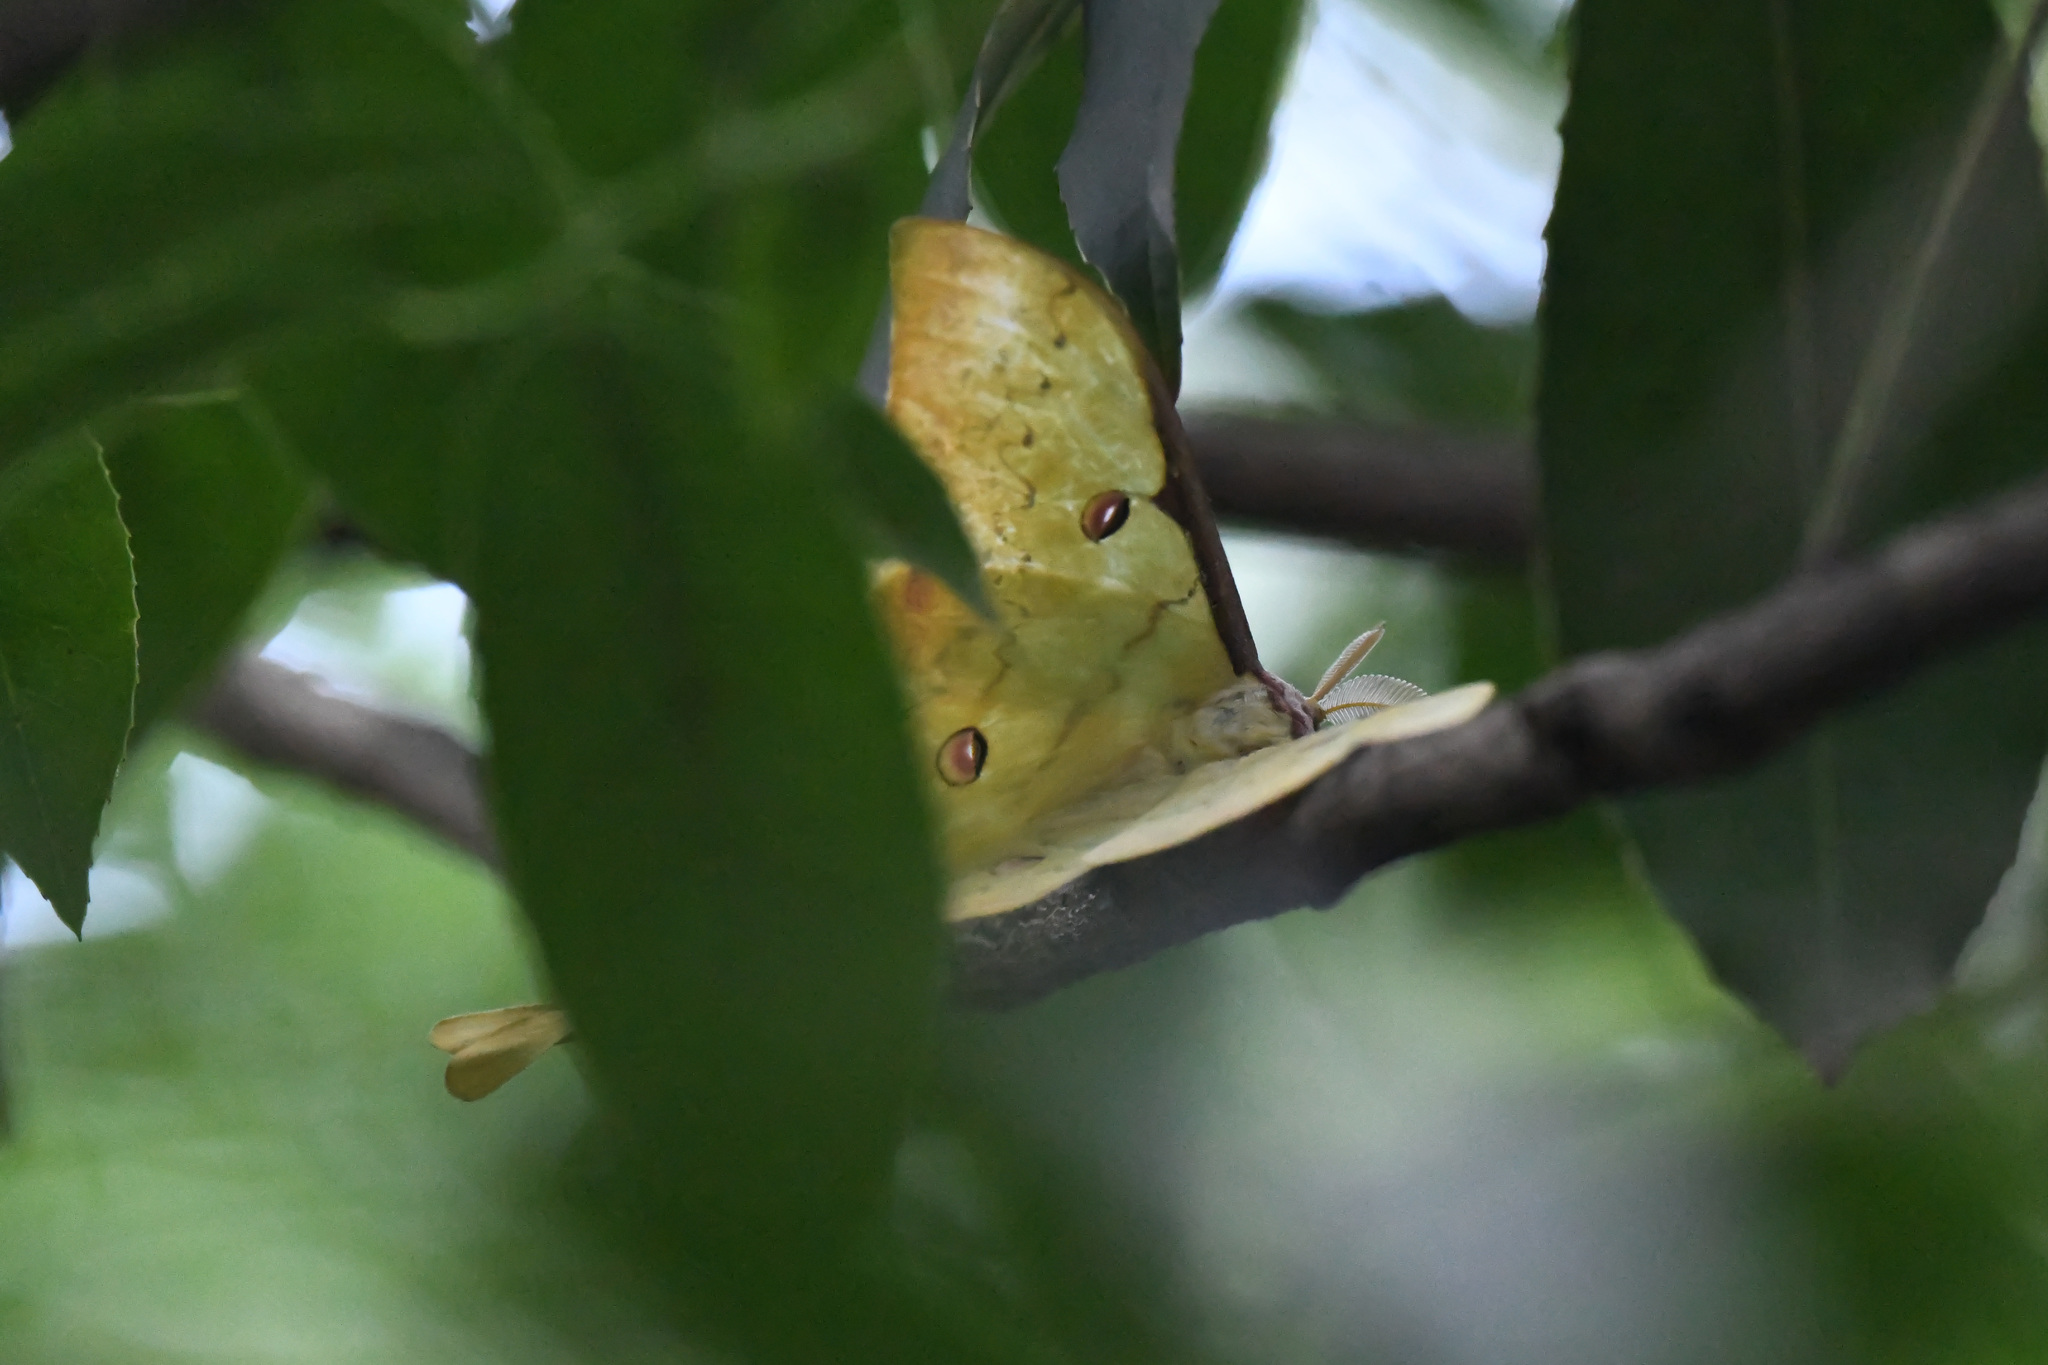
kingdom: Animalia
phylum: Arthropoda
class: Insecta
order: Lepidoptera
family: Saturniidae
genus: Actias
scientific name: Actias sinensis
